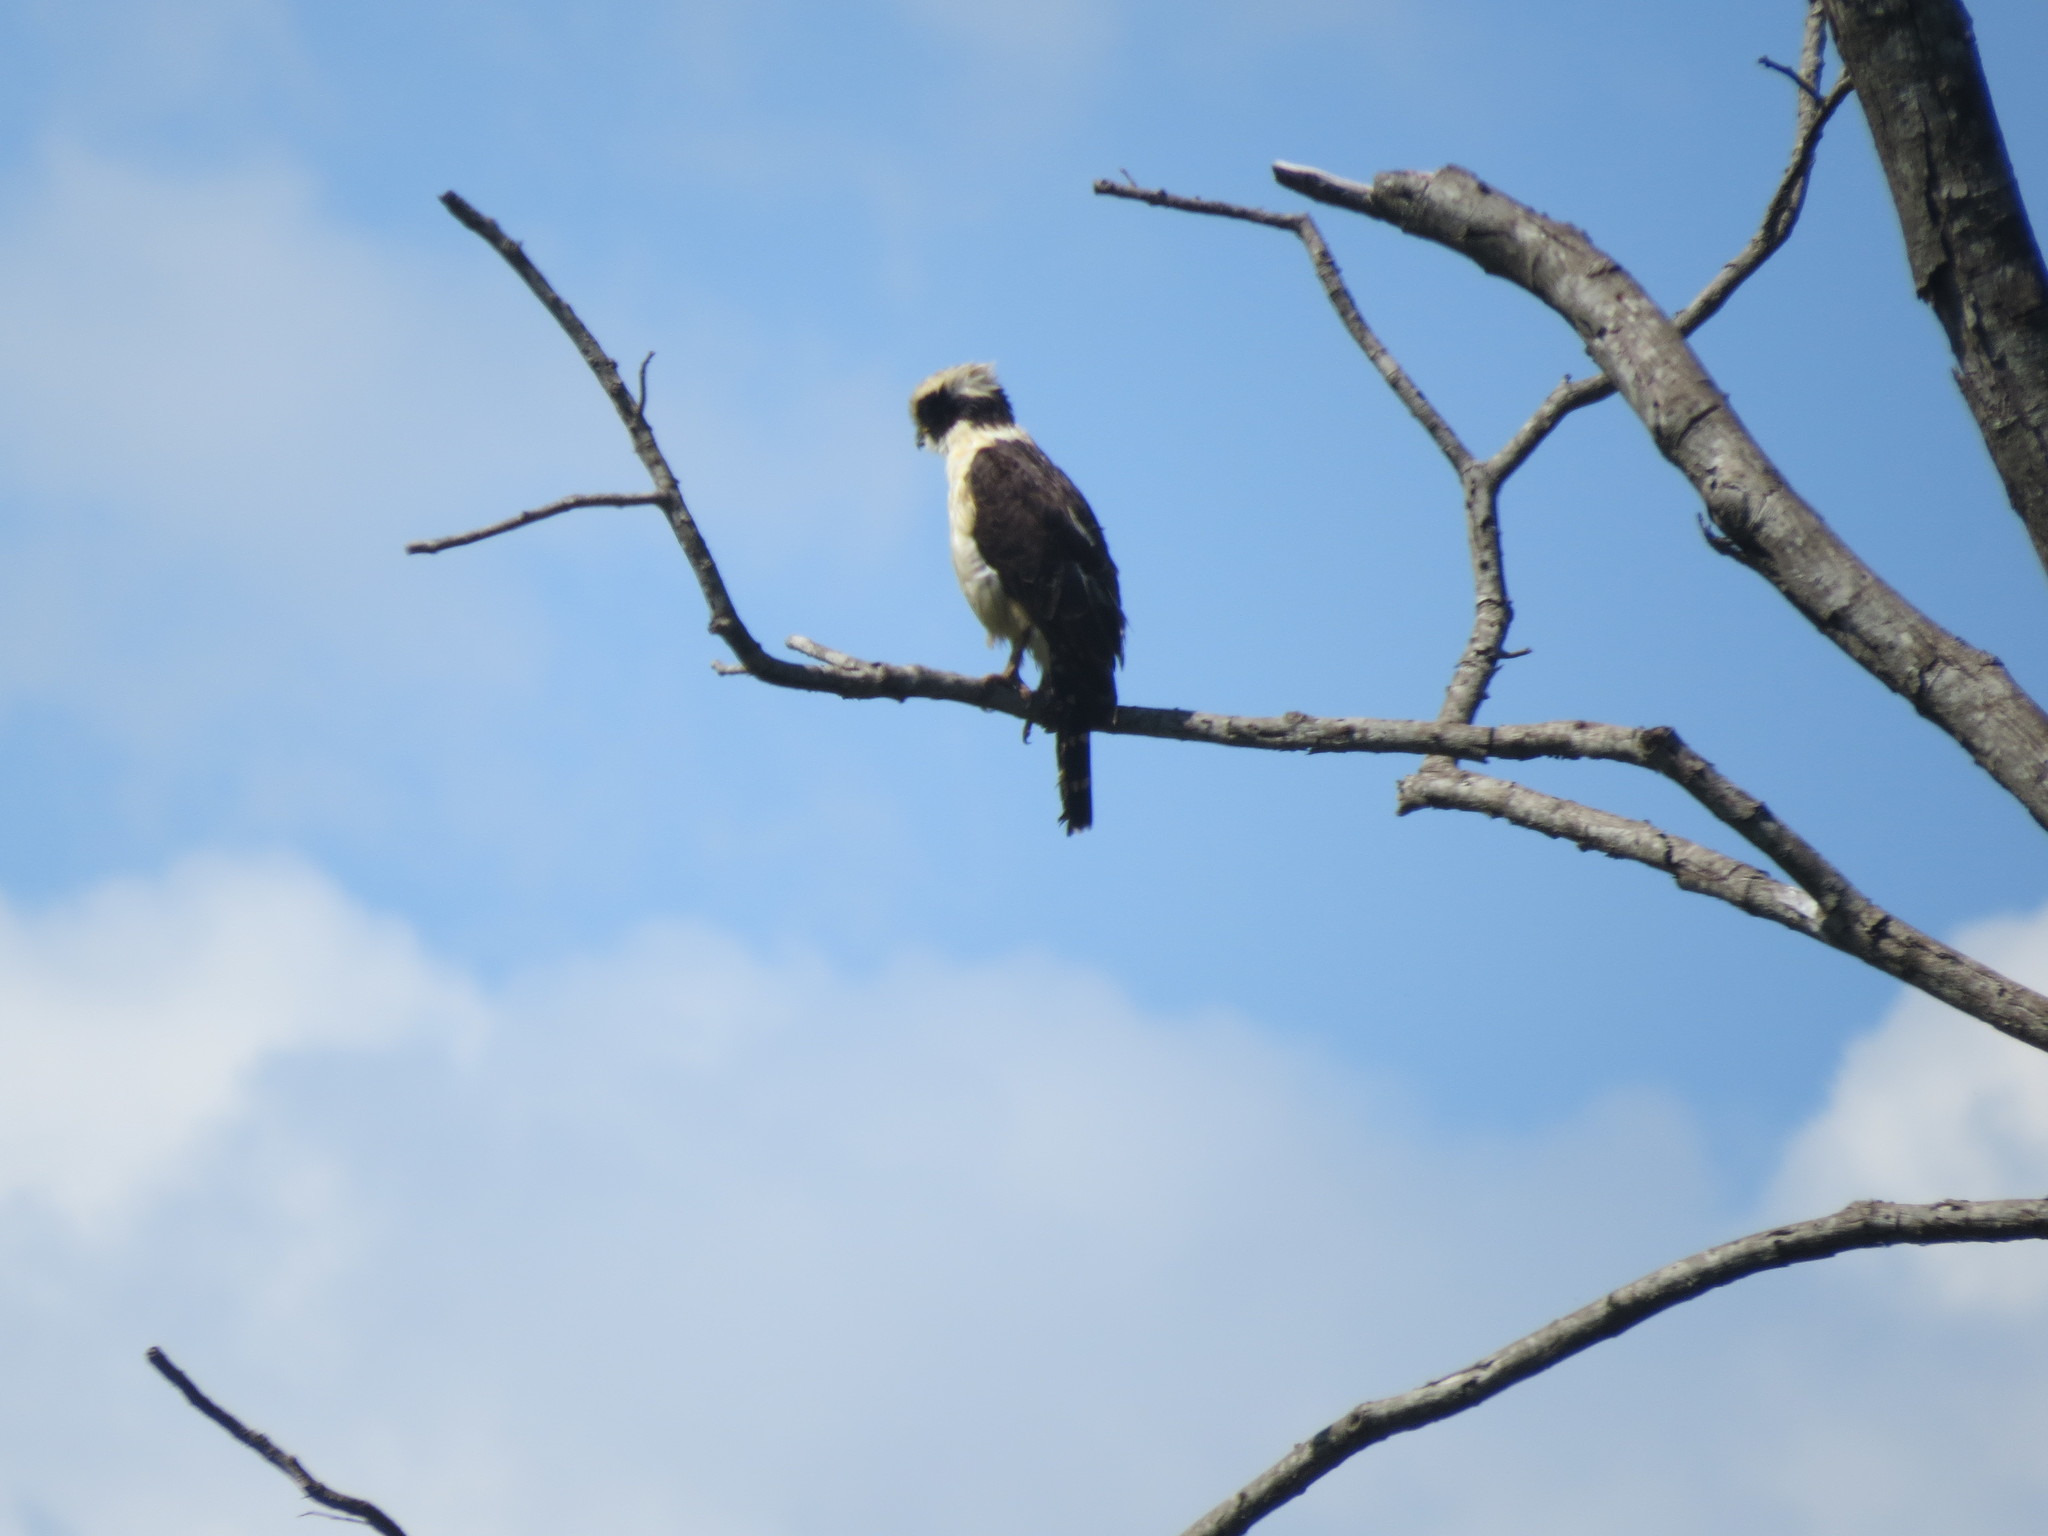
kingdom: Animalia
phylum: Chordata
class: Aves
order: Falconiformes
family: Falconidae
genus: Herpetotheres
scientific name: Herpetotheres cachinnans
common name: Laughing falcon
